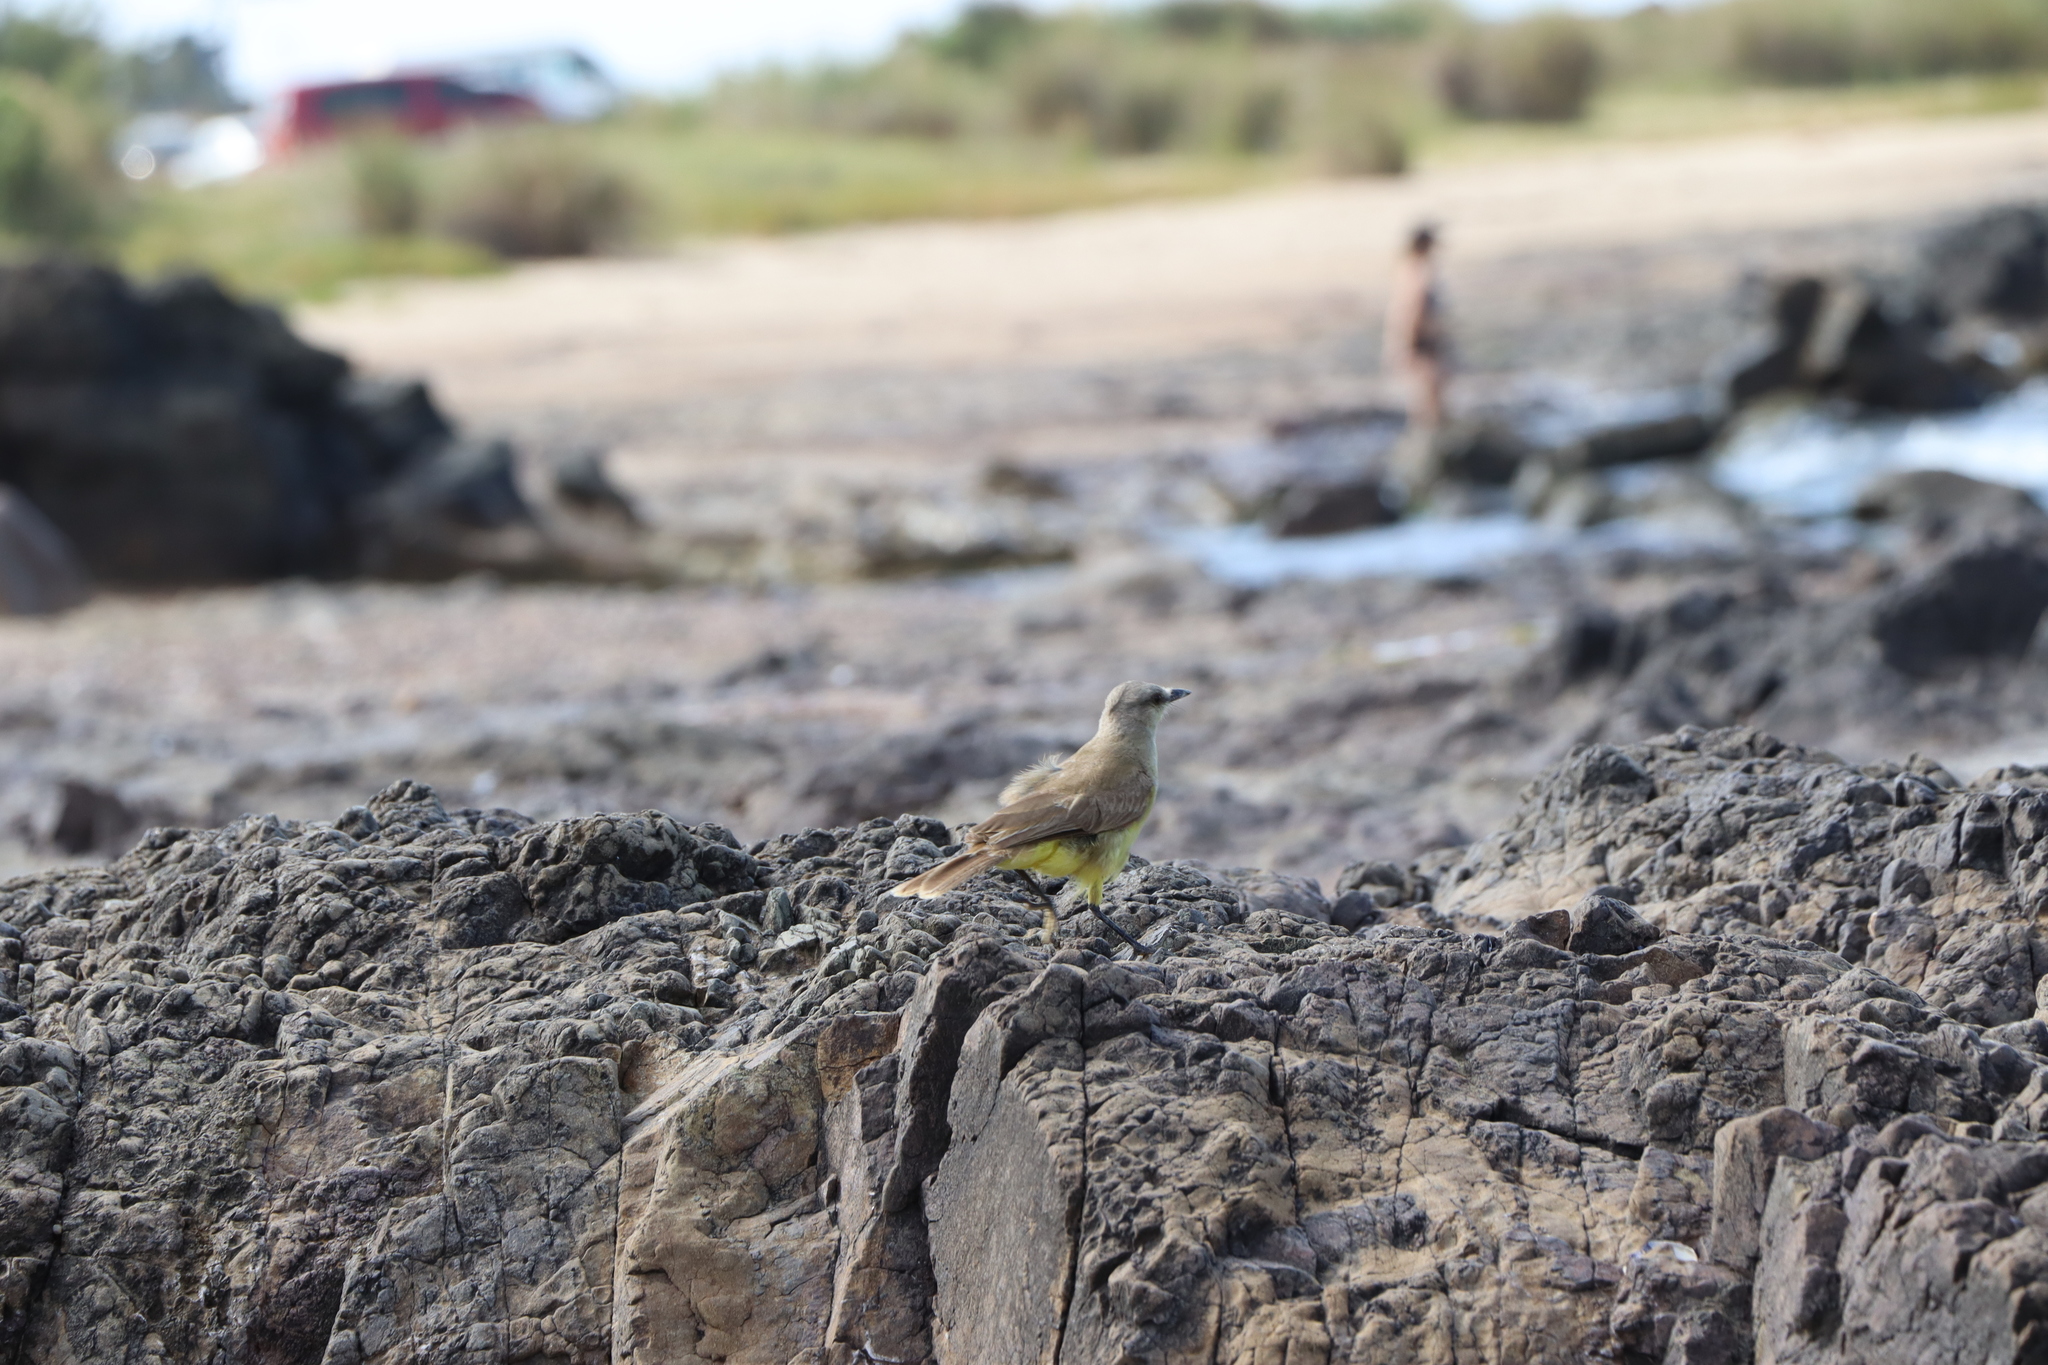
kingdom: Animalia
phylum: Chordata
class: Aves
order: Passeriformes
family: Tyrannidae
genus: Machetornis
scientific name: Machetornis rixosa
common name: Cattle tyrant
